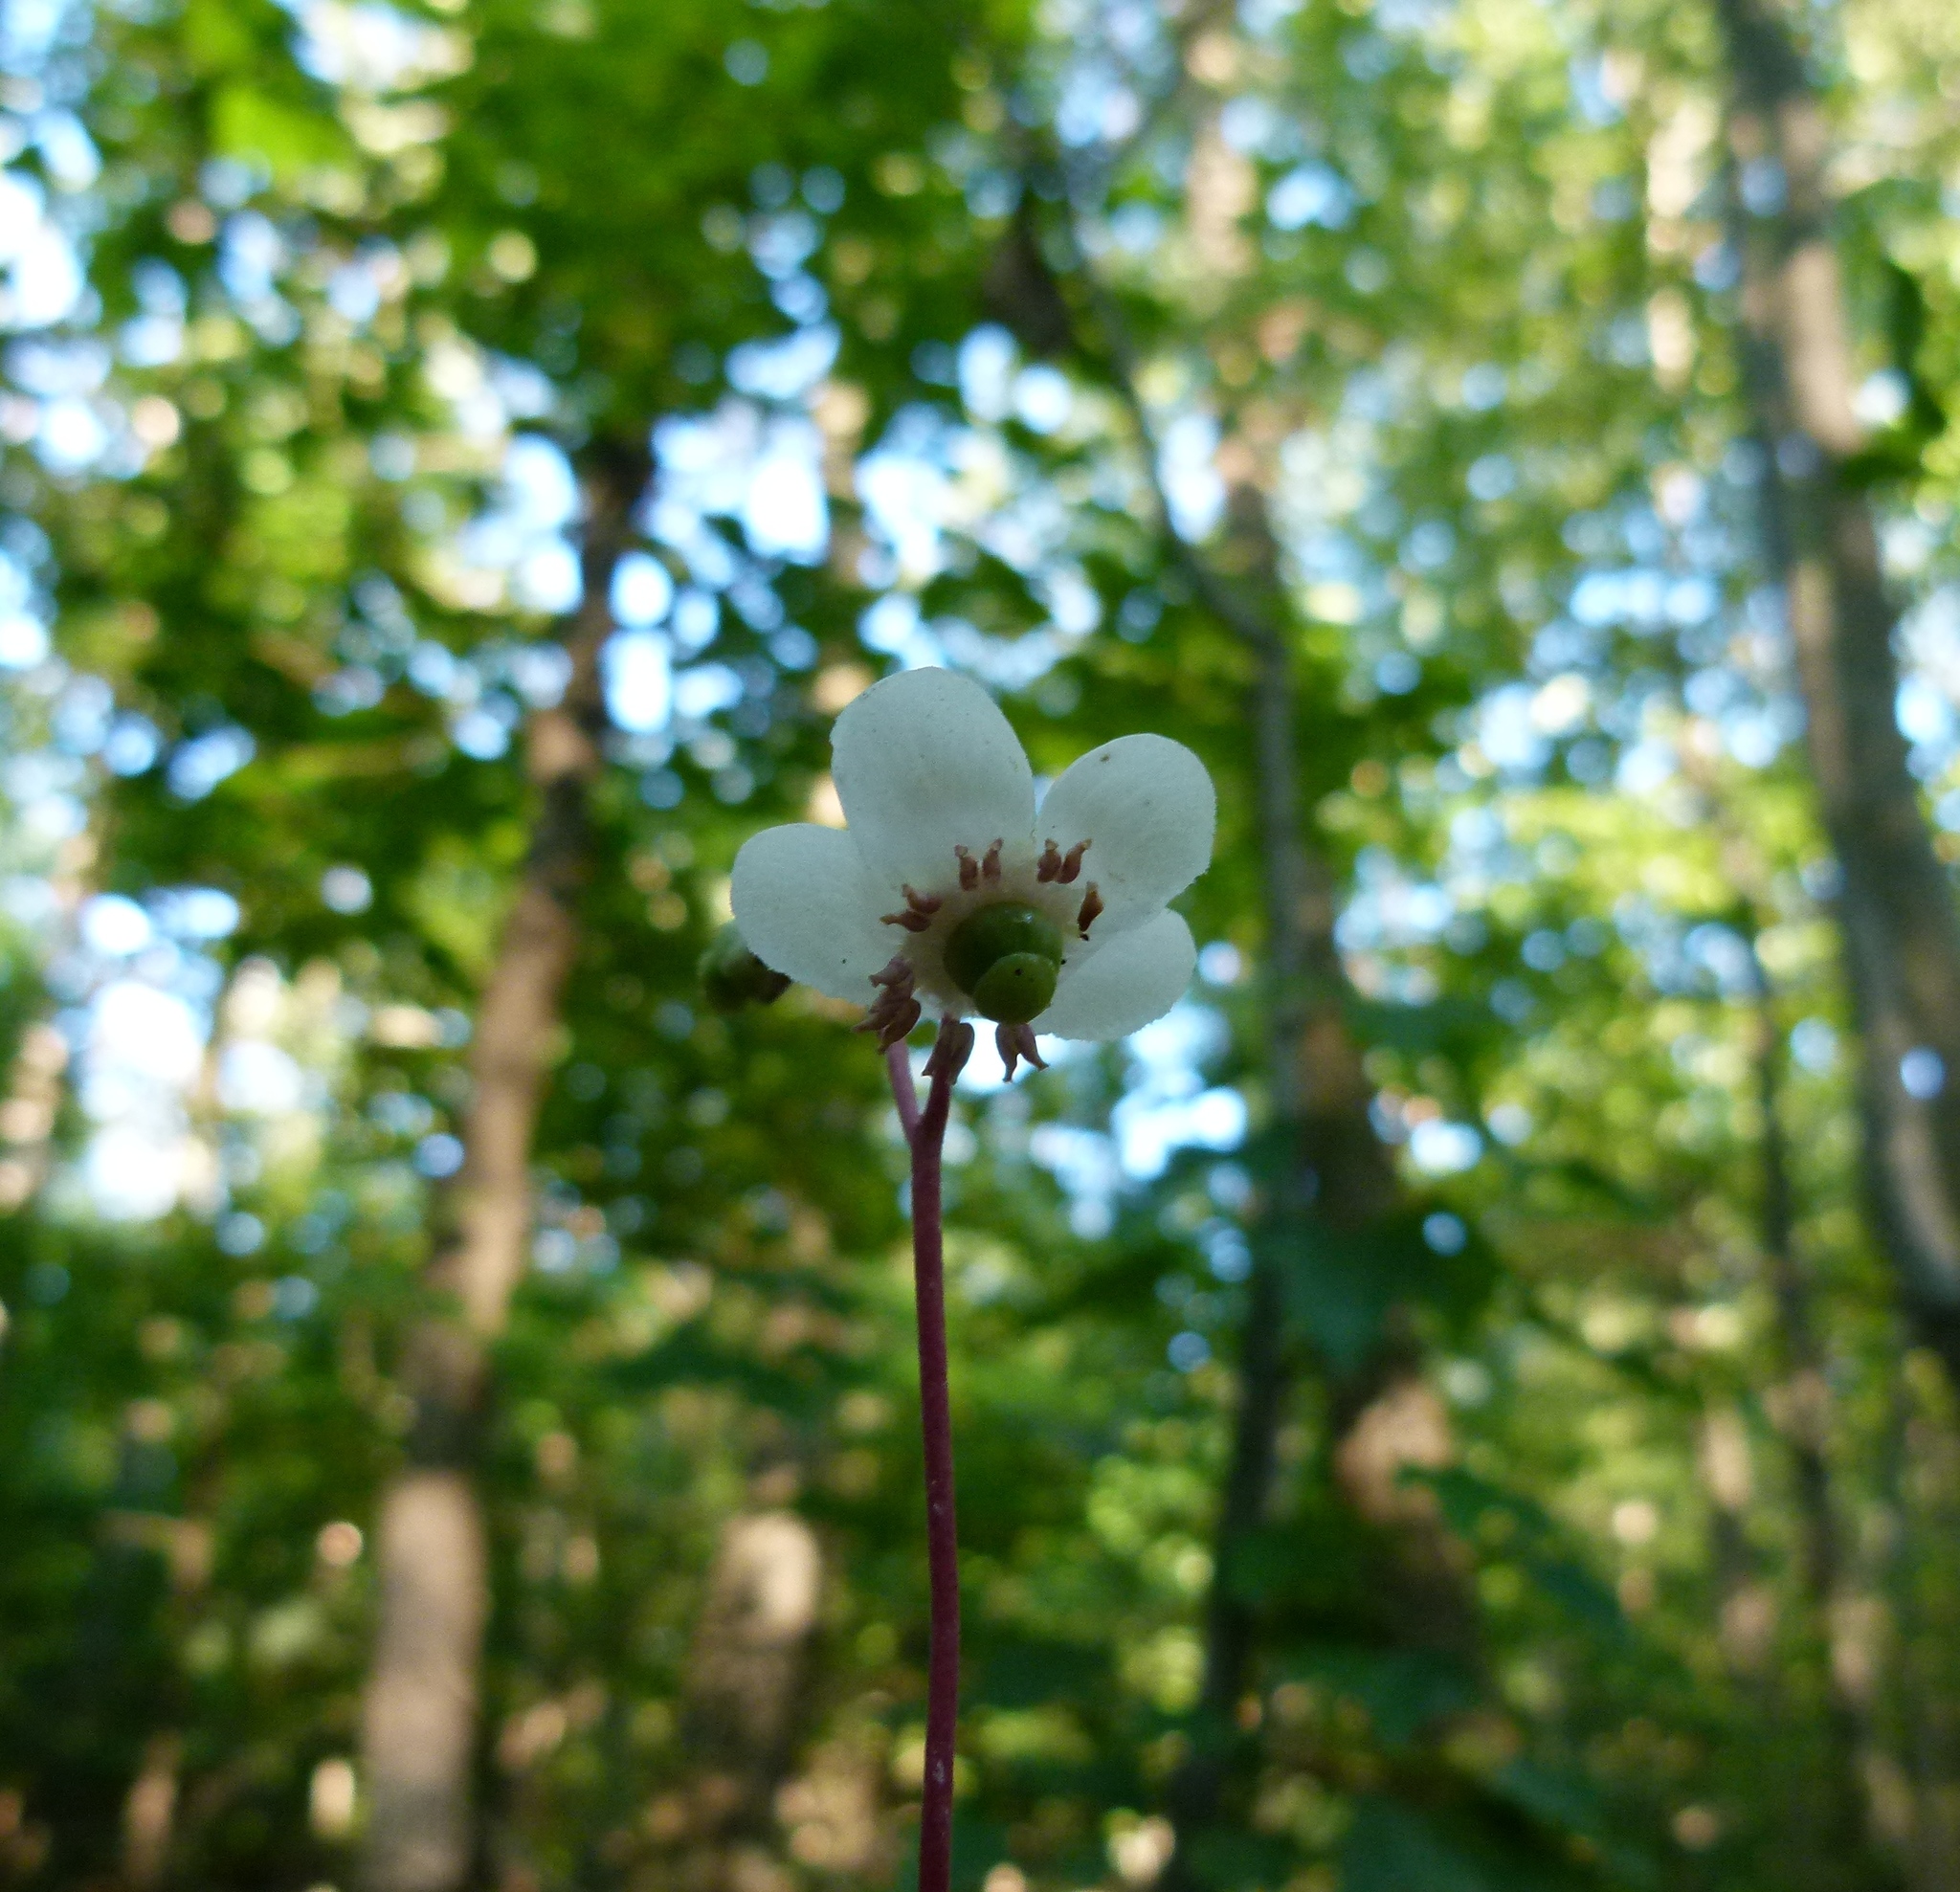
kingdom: Plantae
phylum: Tracheophyta
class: Magnoliopsida
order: Ericales
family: Ericaceae
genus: Chimaphila
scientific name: Chimaphila maculata
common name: Spotted pipsissewa
